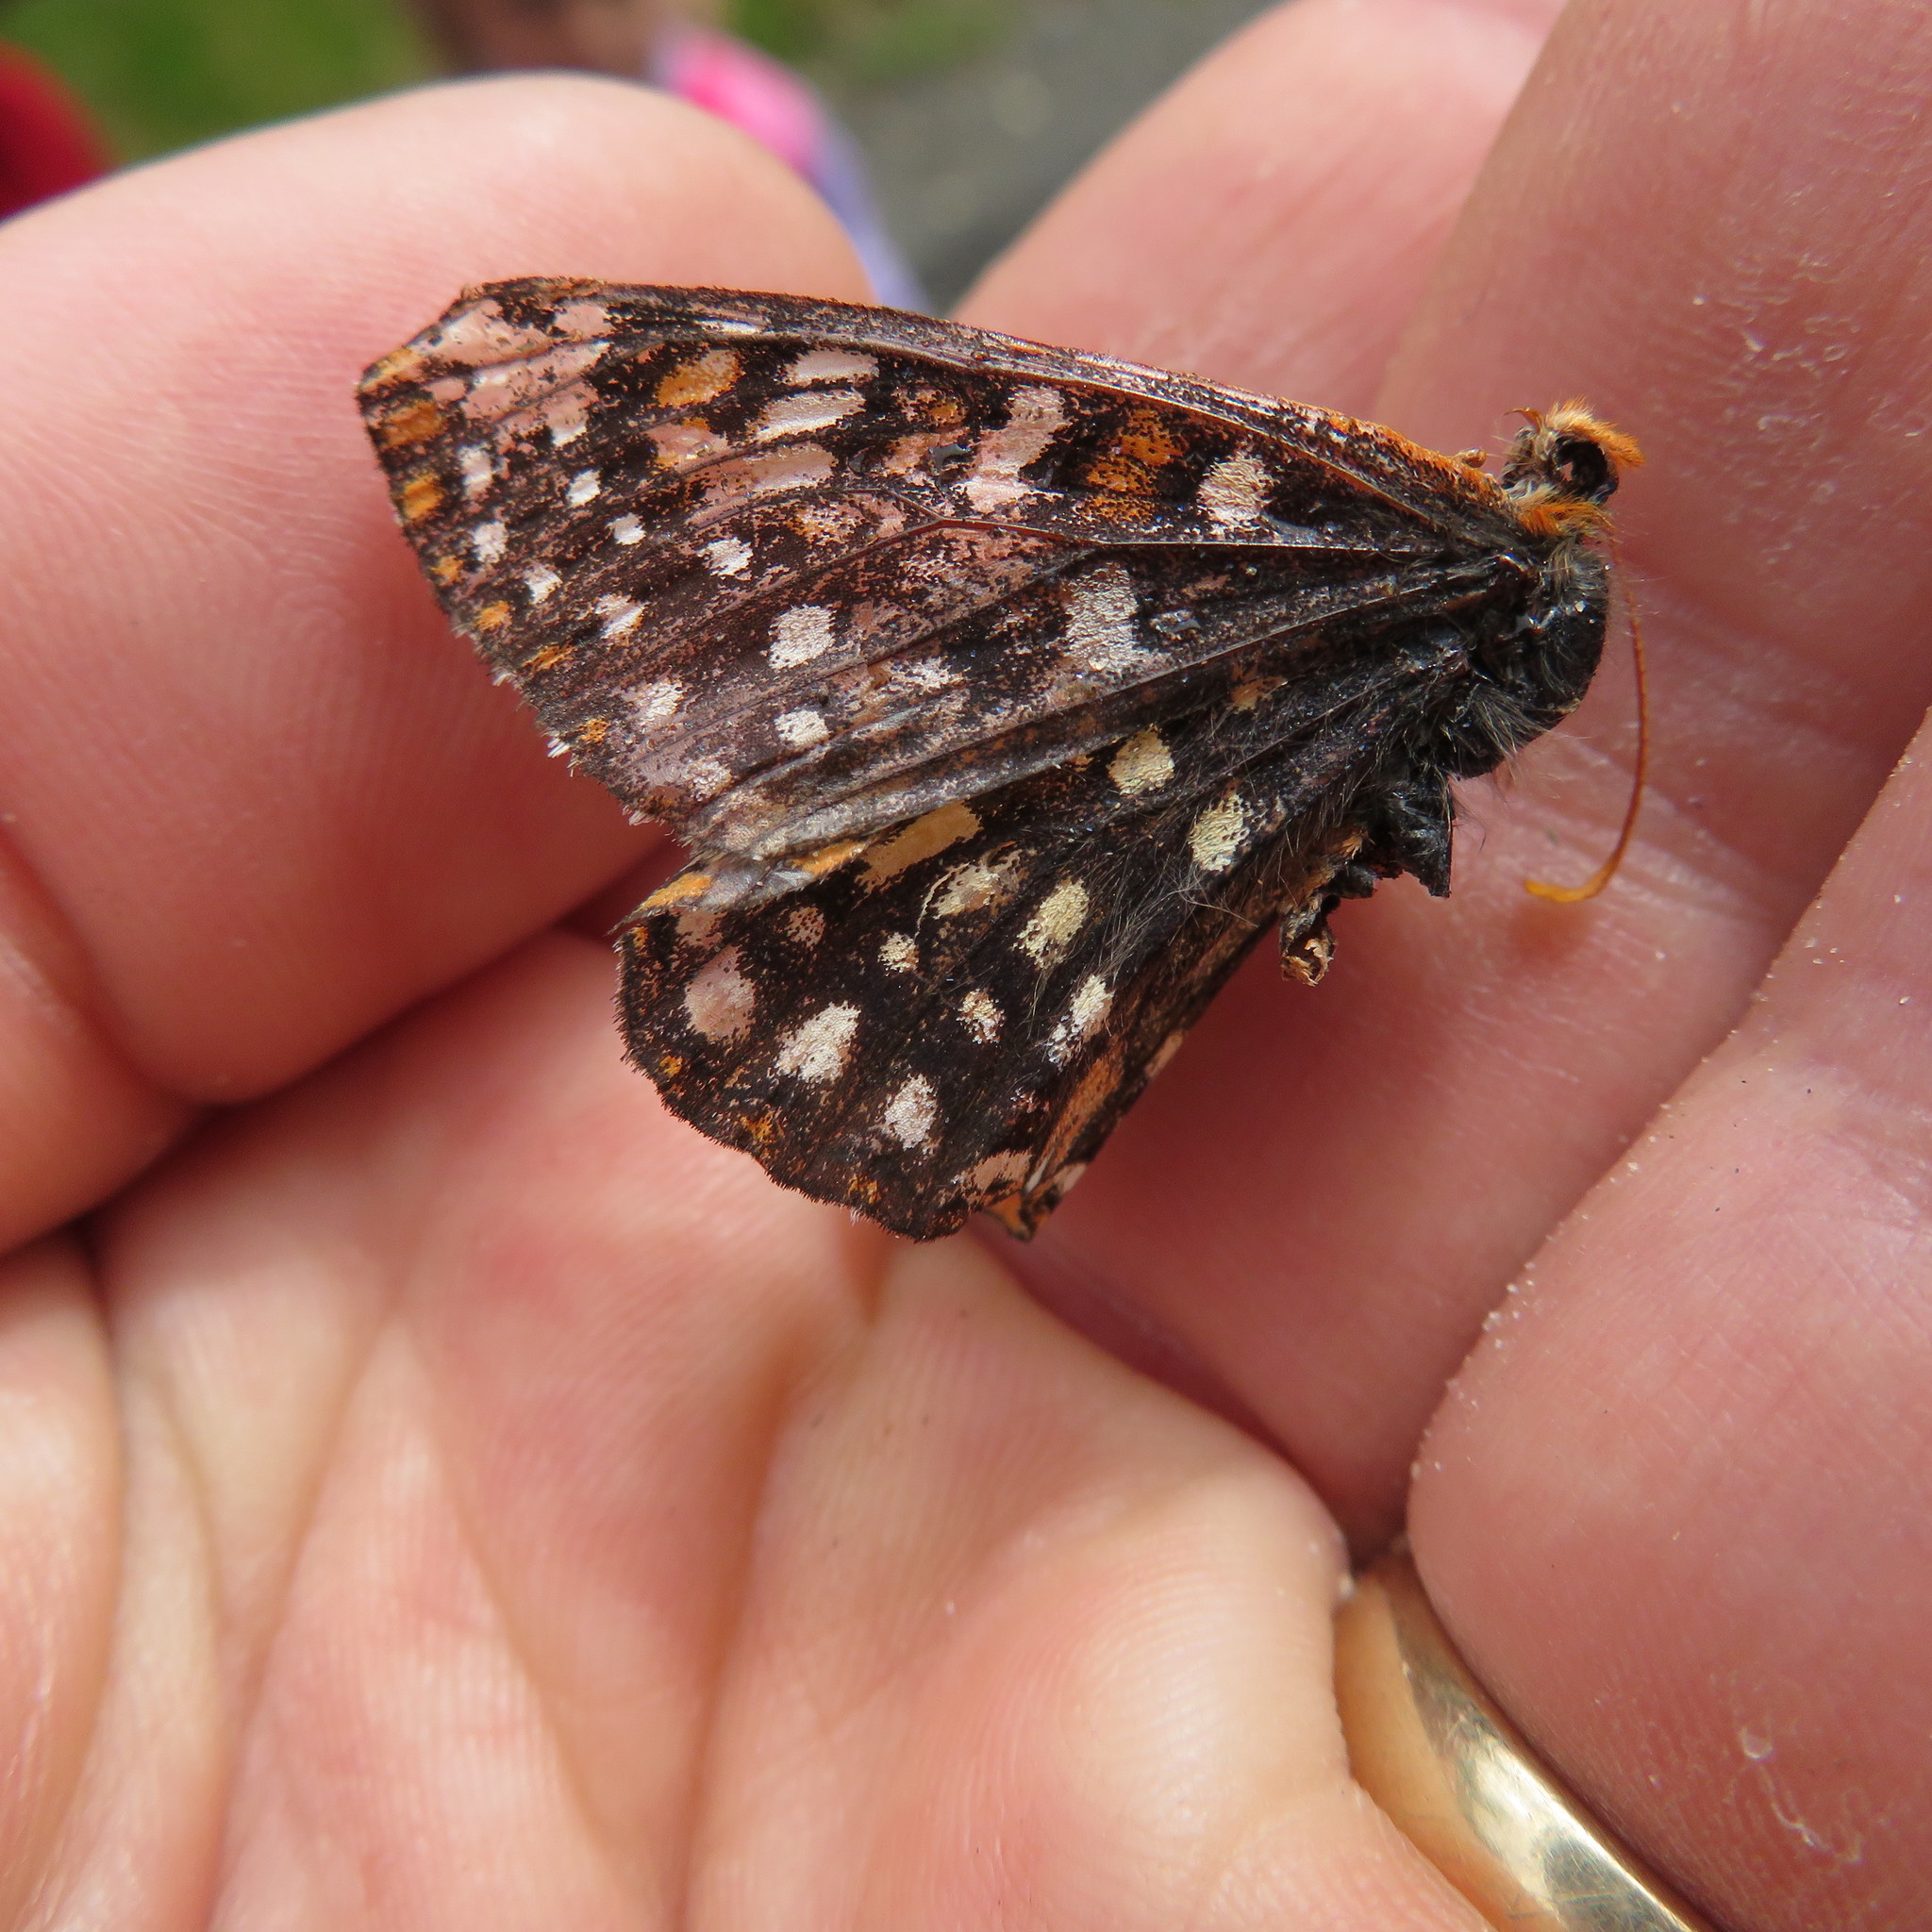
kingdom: Animalia
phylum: Arthropoda
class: Insecta
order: Lepidoptera
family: Nymphalidae
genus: Occidryas
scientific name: Occidryas chalcedona
